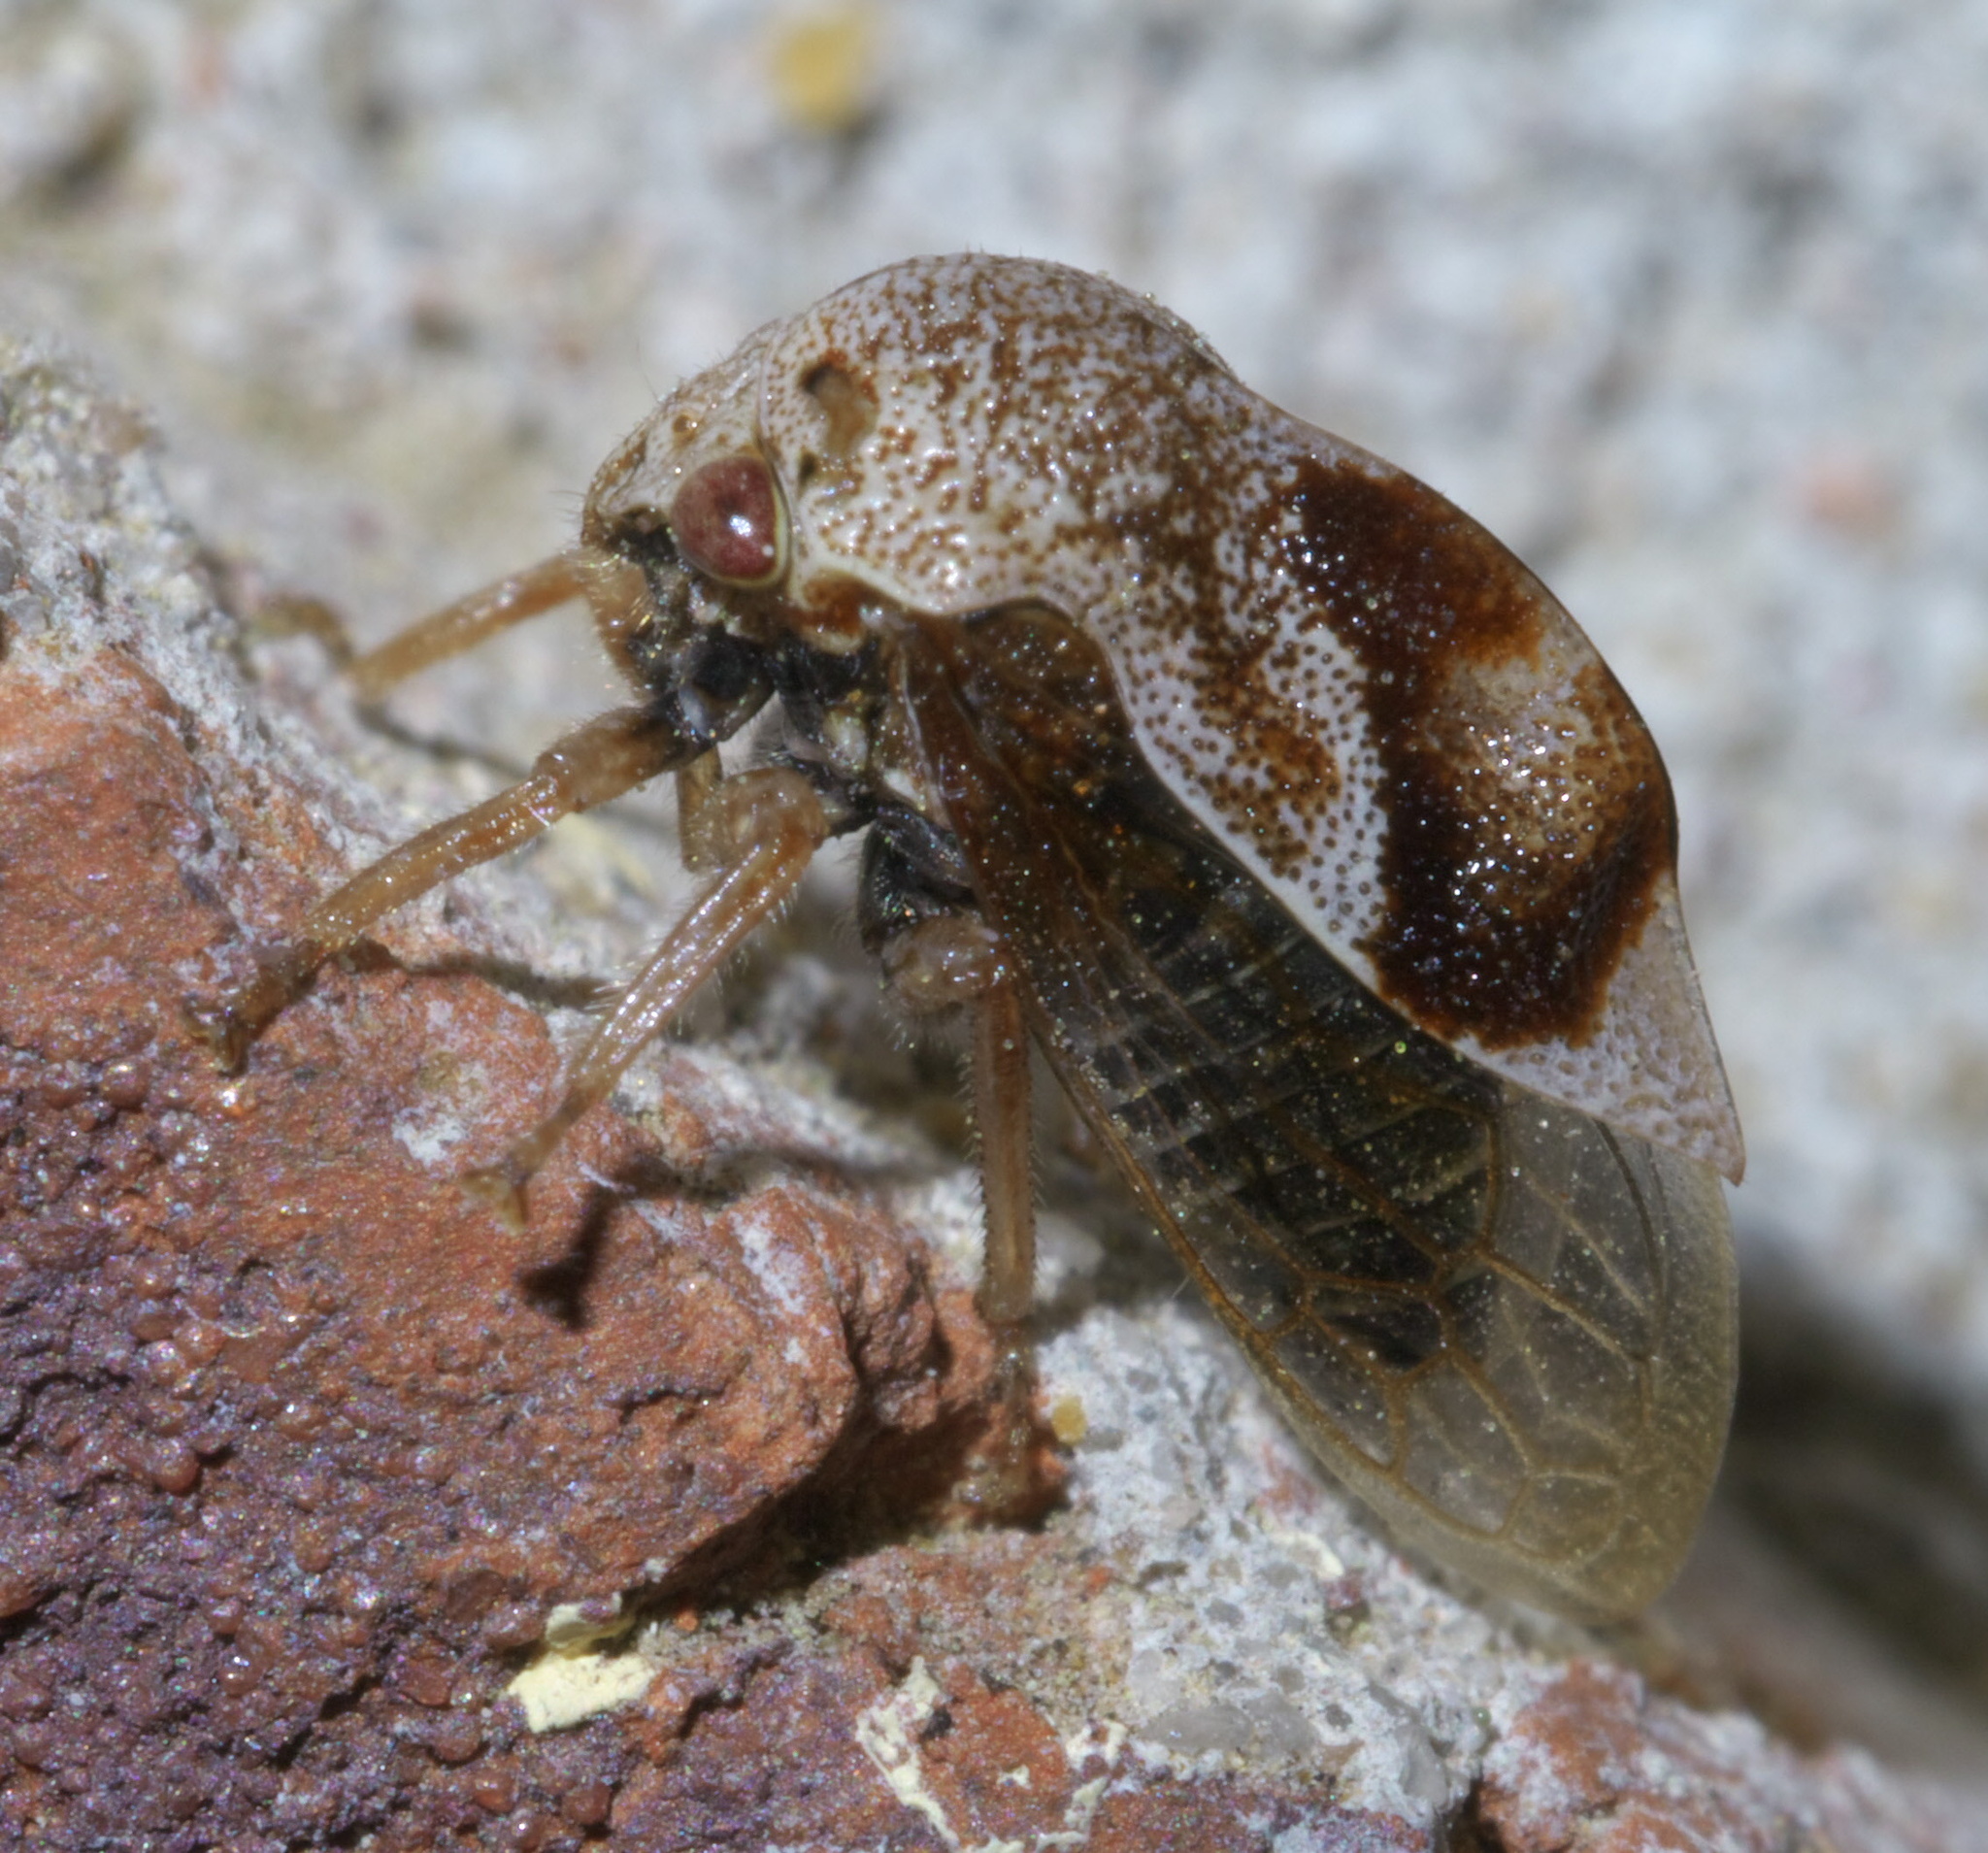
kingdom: Animalia
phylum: Arthropoda
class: Insecta
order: Hemiptera
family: Membracidae
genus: Xantholobus
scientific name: Xantholobus mutica
